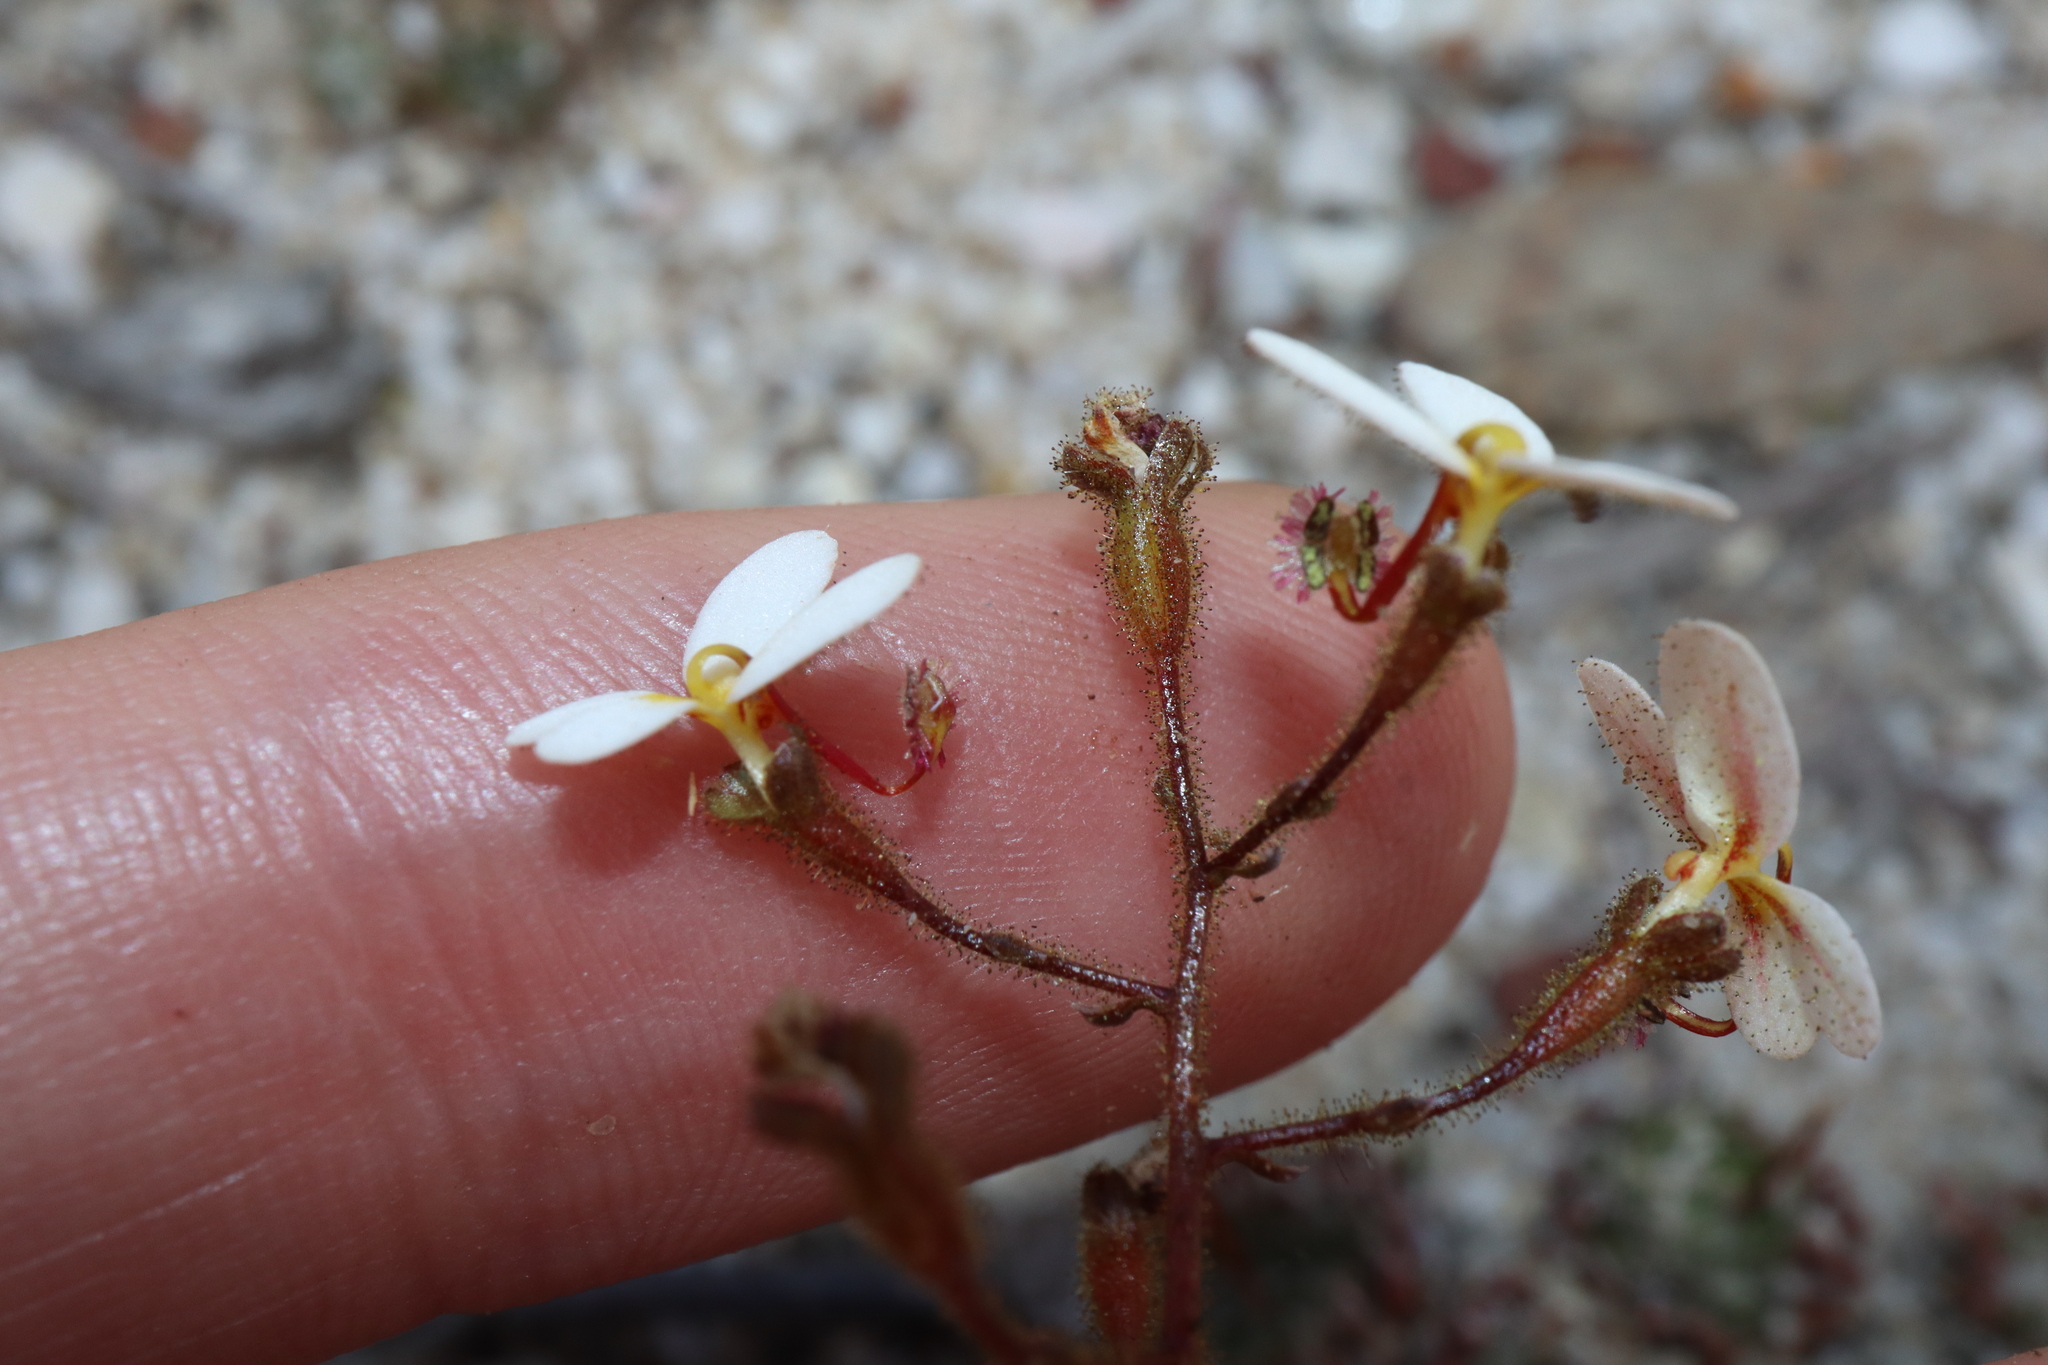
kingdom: Plantae
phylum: Tracheophyta
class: Magnoliopsida
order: Asterales
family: Stylidiaceae
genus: Stylidium
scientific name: Stylidium piliferum
